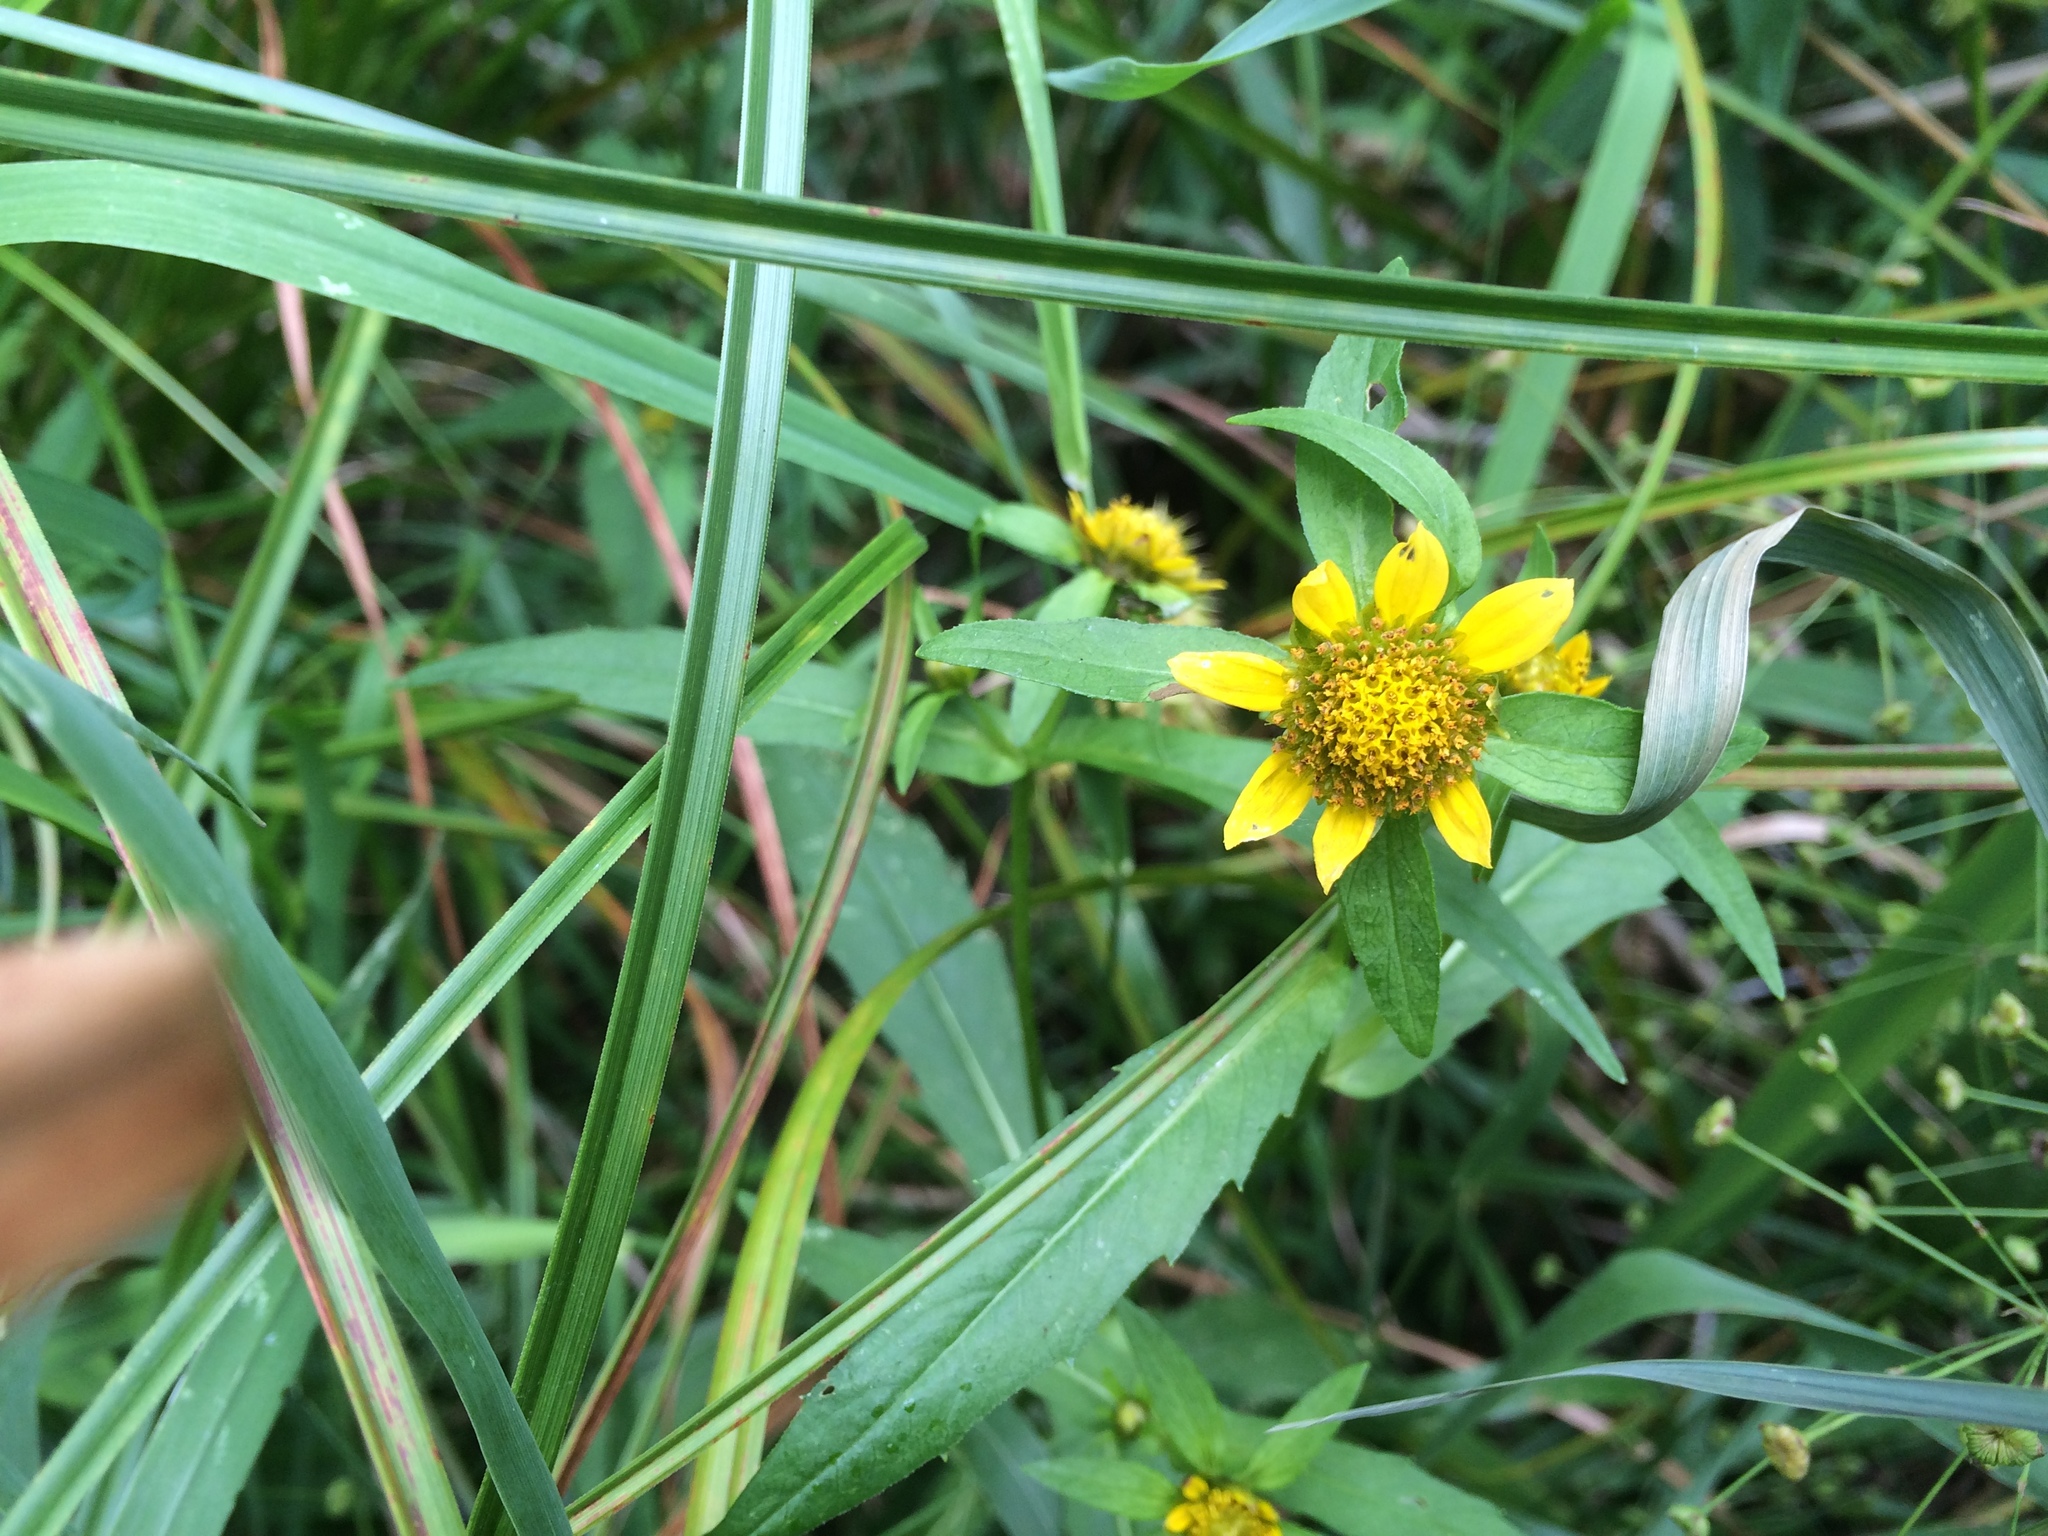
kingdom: Plantae
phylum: Tracheophyta
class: Magnoliopsida
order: Asterales
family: Asteraceae
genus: Bidens
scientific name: Bidens cernua
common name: Nodding bur-marigold
